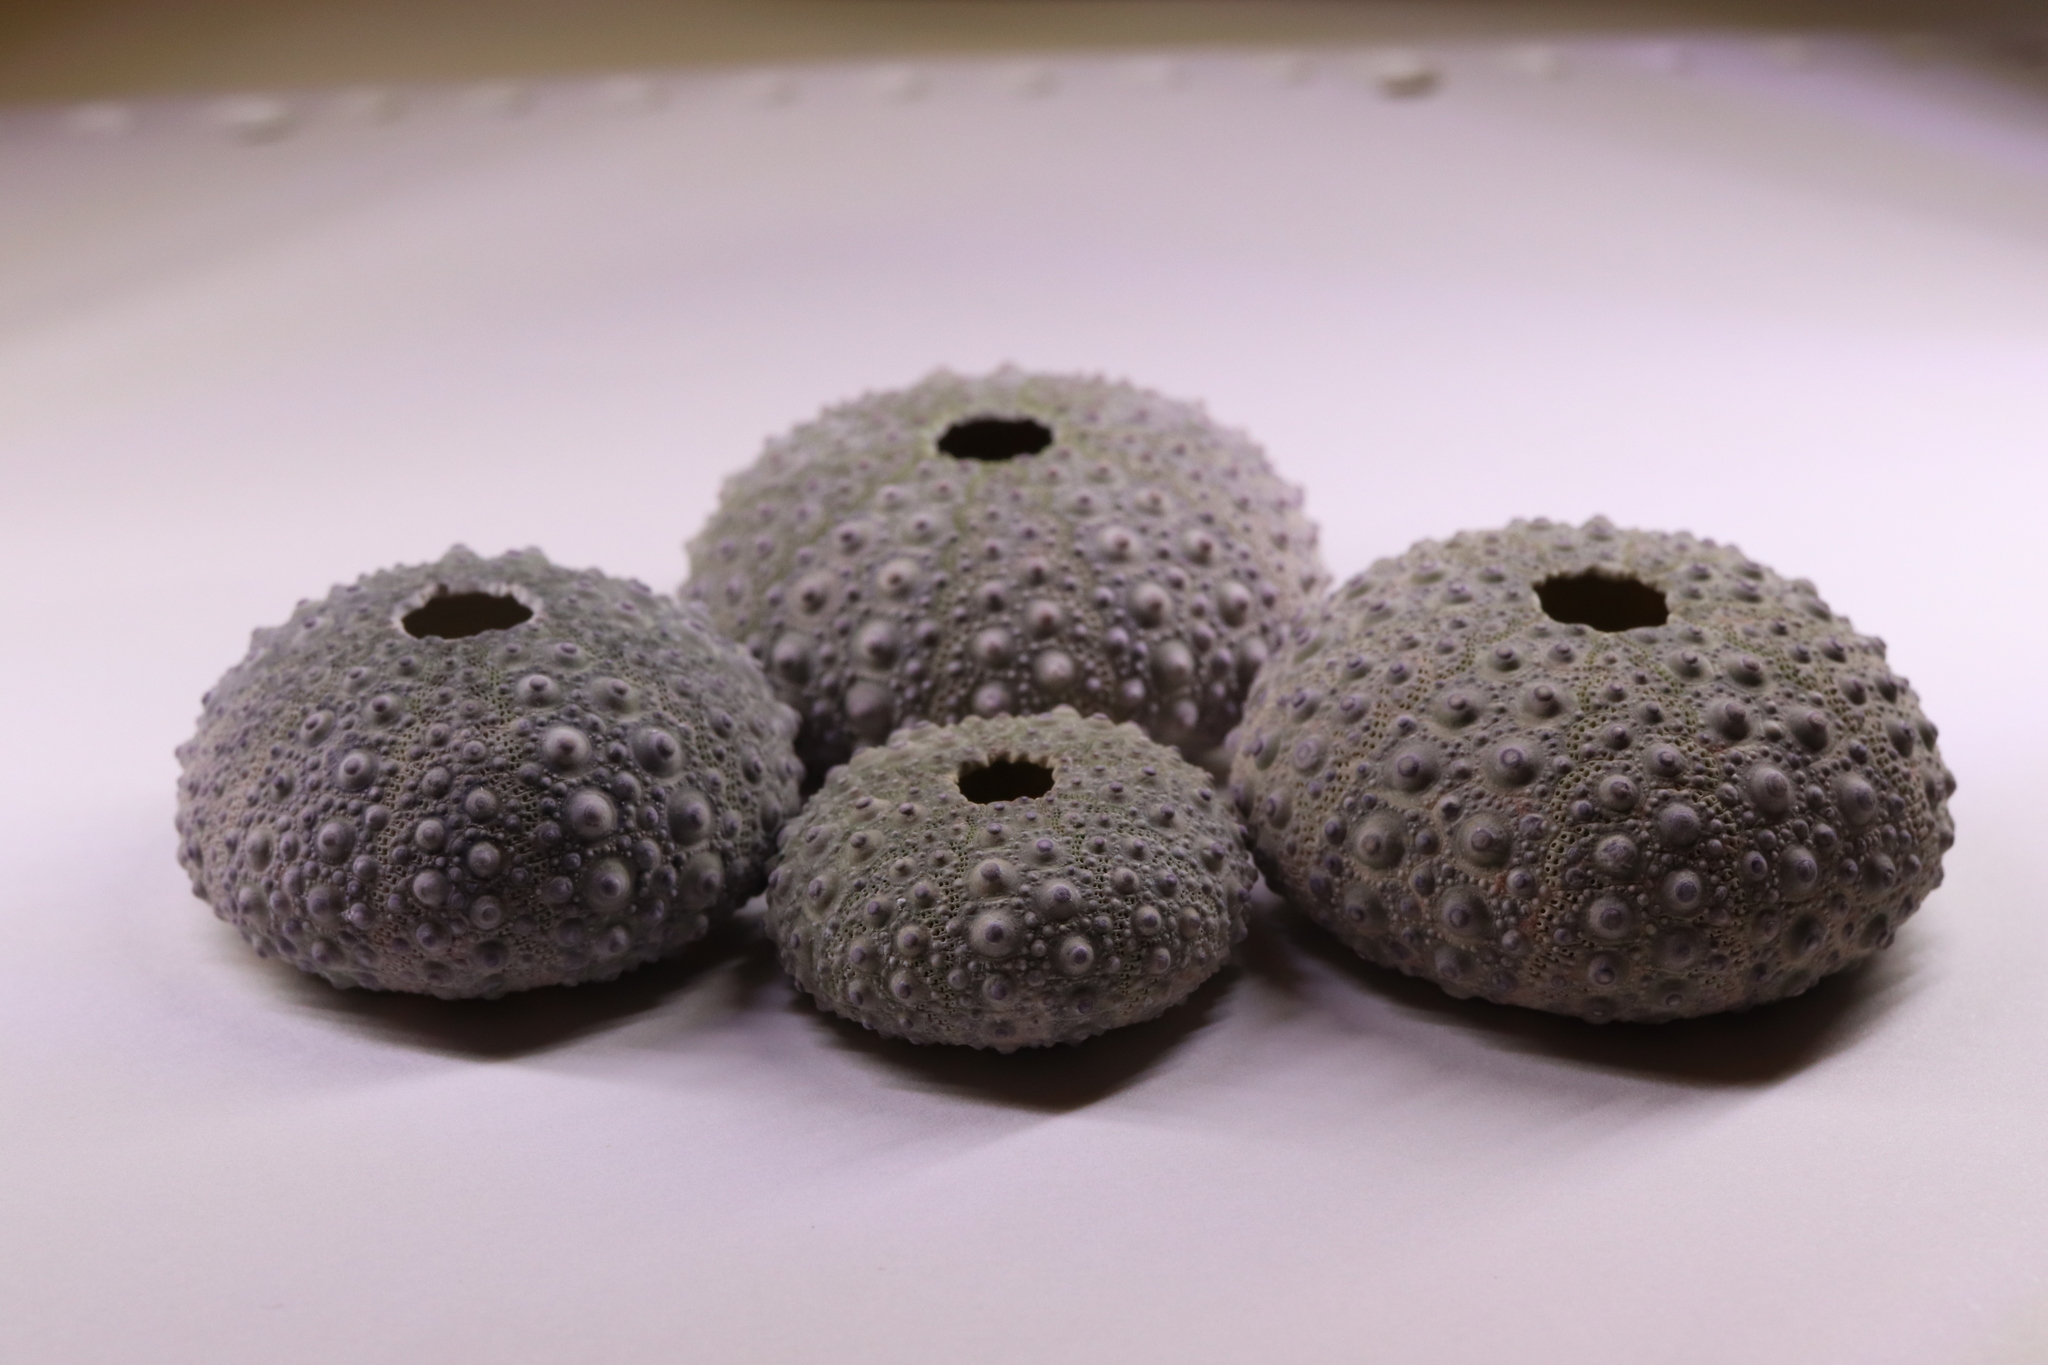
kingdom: Animalia
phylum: Echinodermata
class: Echinoidea
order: Camarodonta
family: Echinometridae
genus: Heliocidaris
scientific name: Heliocidaris crassispina
